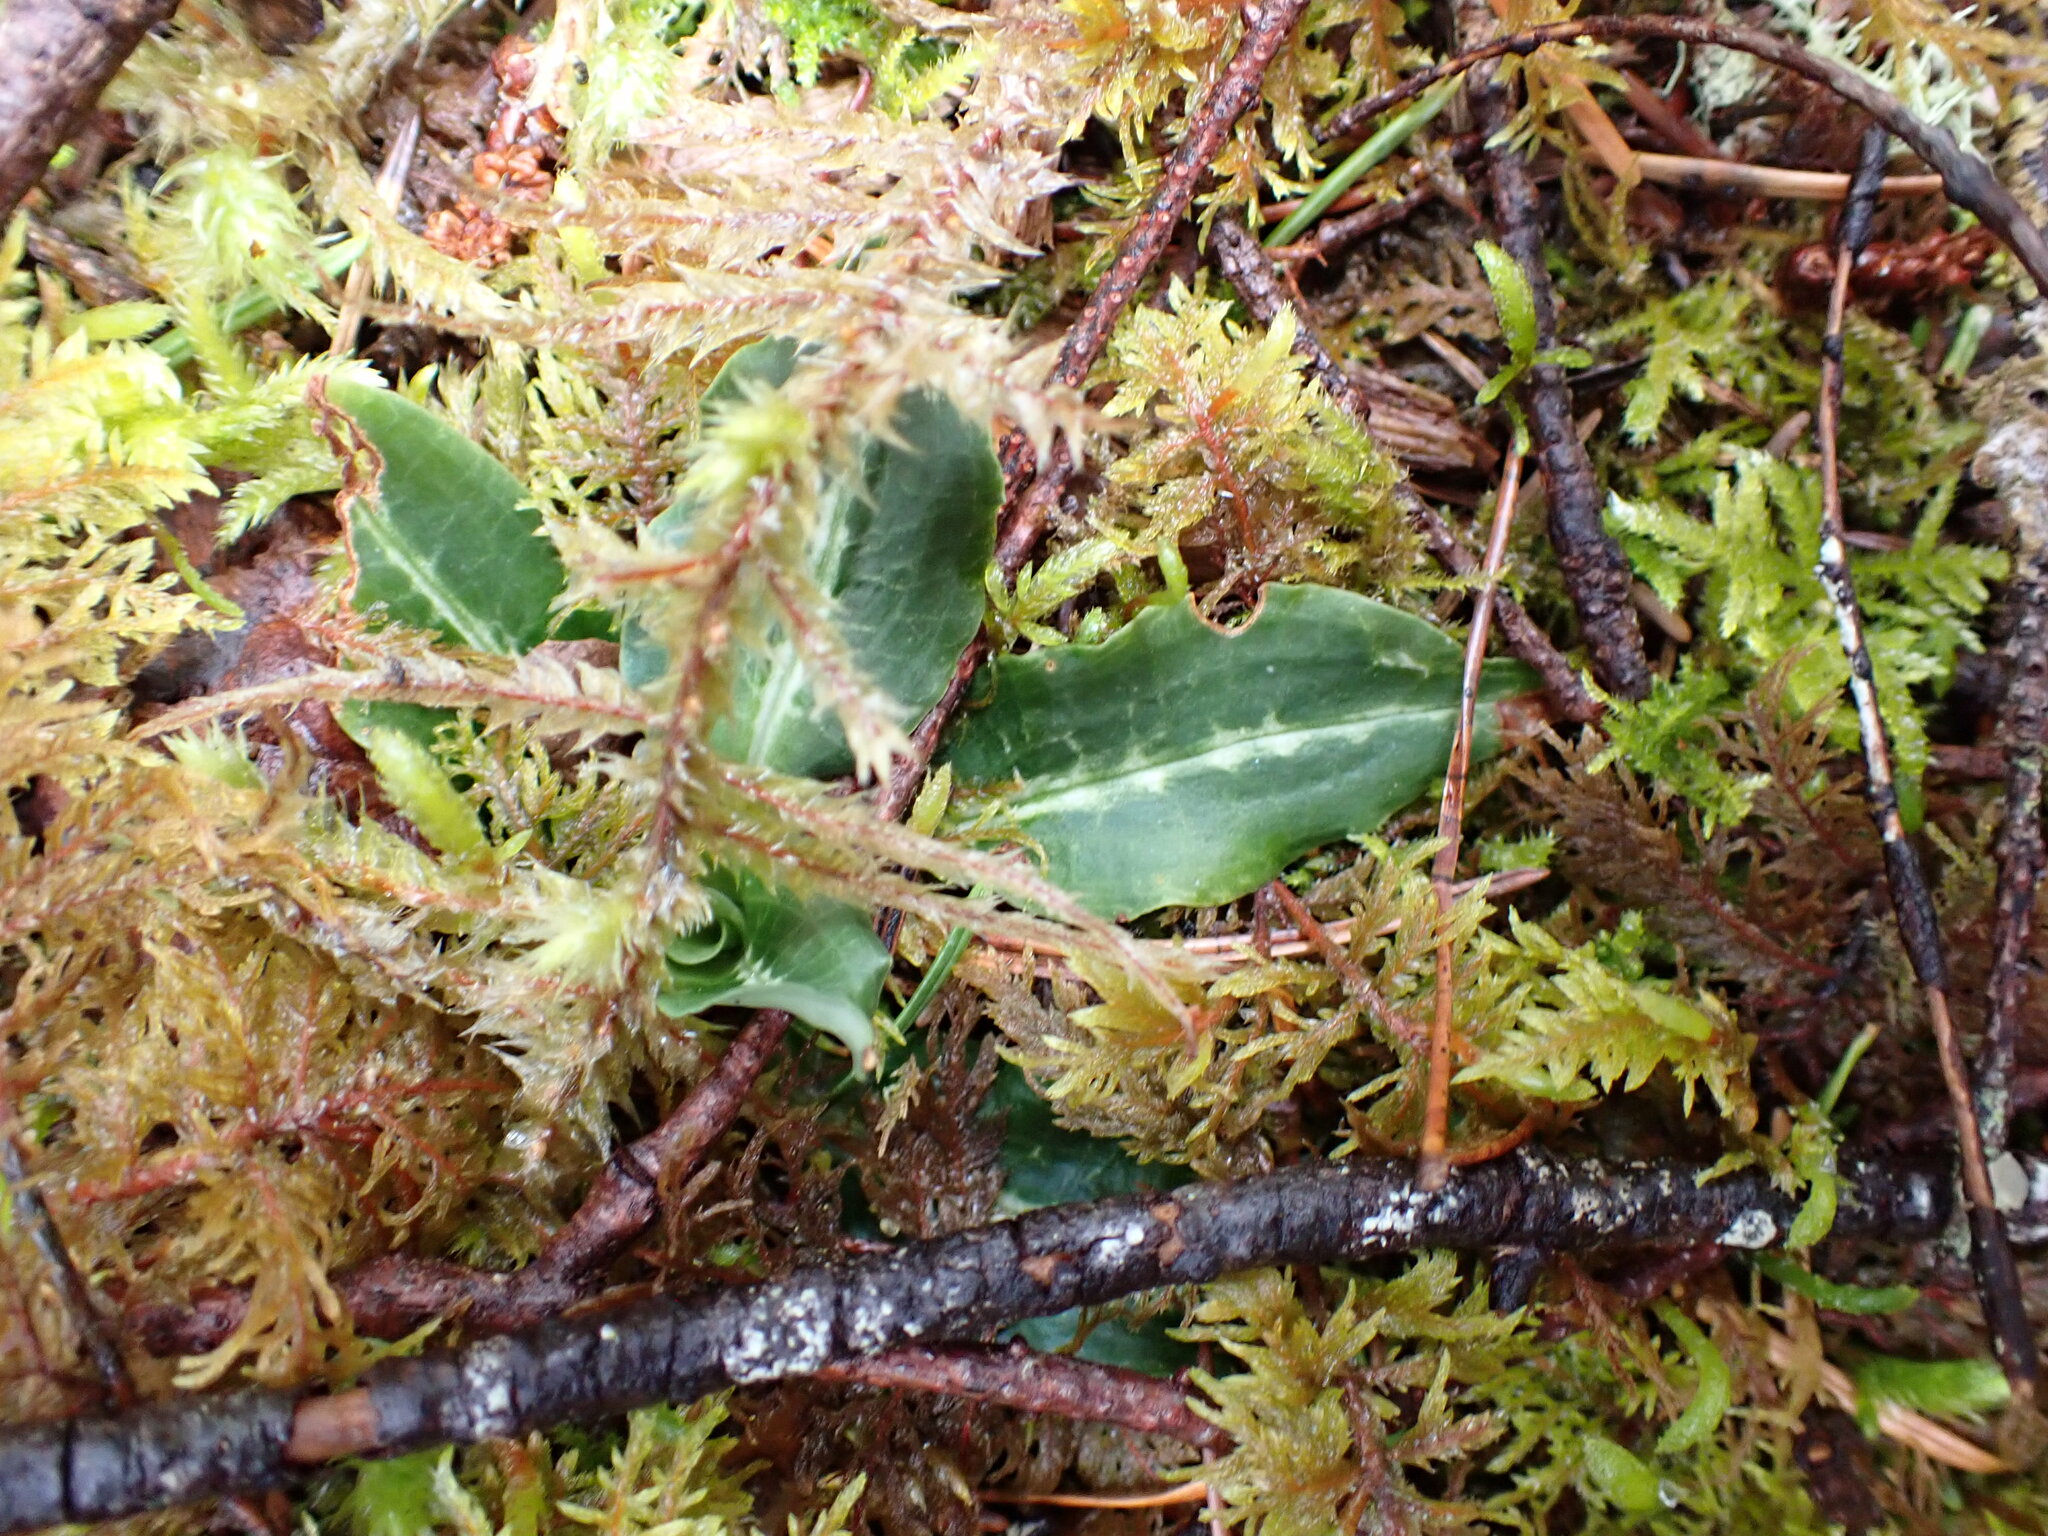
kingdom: Plantae
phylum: Tracheophyta
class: Liliopsida
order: Asparagales
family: Orchidaceae
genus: Goodyera
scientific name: Goodyera oblongifolia
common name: Giant rattlesnake-plantain
